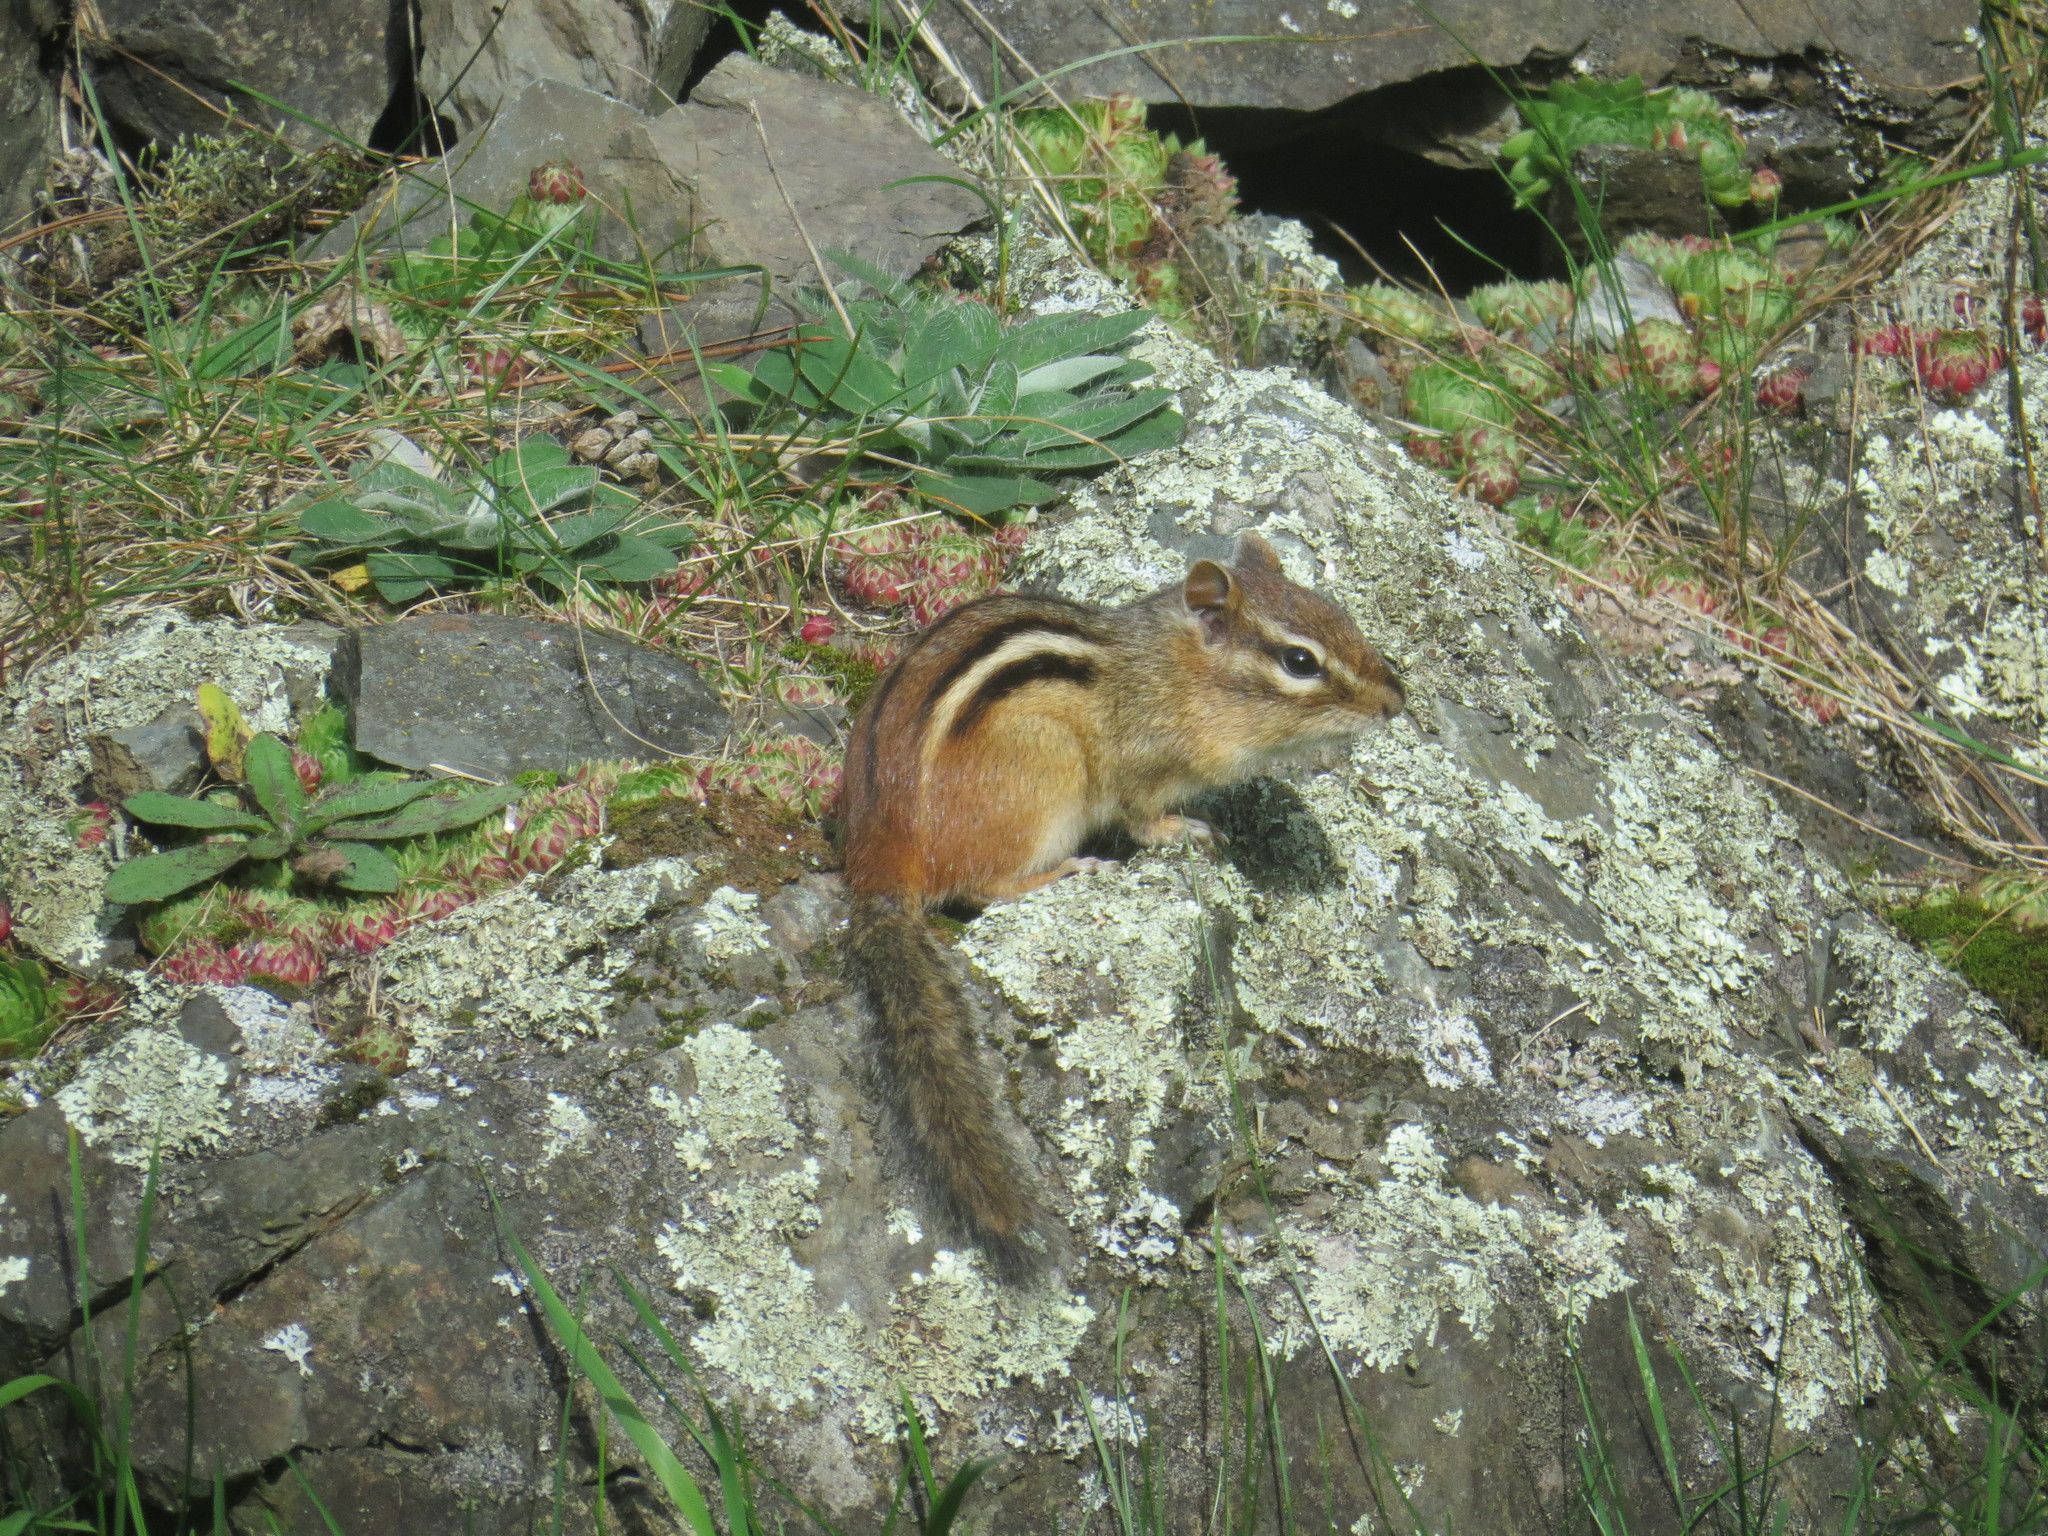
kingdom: Animalia
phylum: Chordata
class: Mammalia
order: Rodentia
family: Sciuridae
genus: Tamias
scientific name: Tamias striatus
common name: Eastern chipmunk
